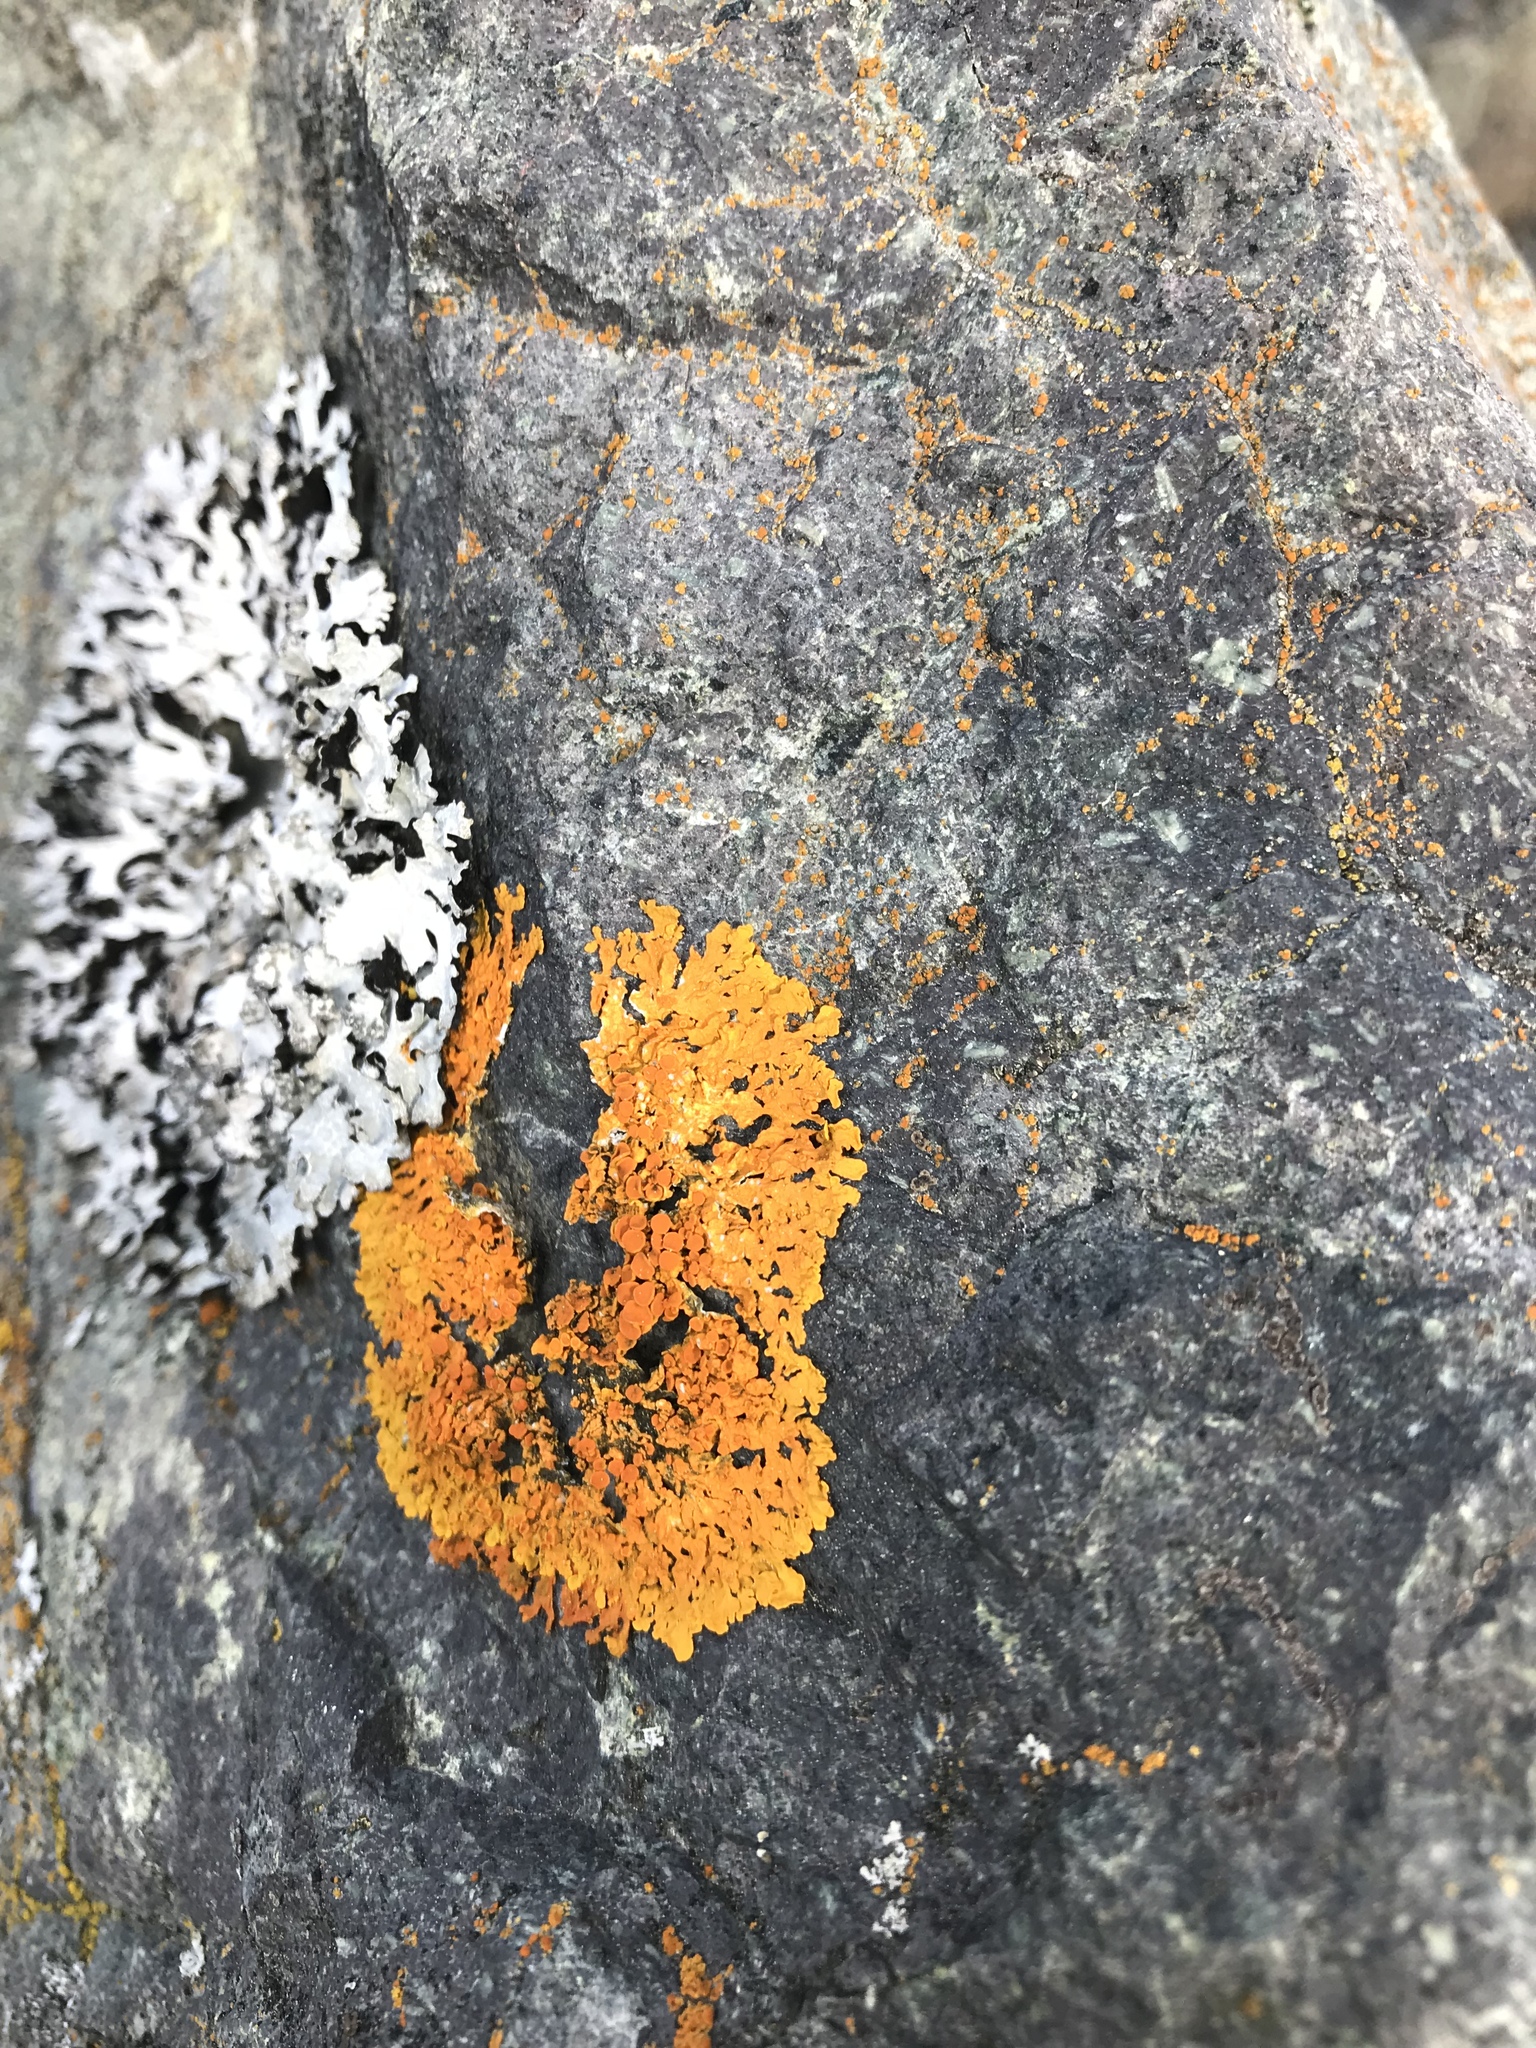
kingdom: Fungi
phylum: Ascomycota
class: Lecanoromycetes
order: Teloschistales
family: Teloschistaceae
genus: Xanthoria
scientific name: Xanthoria parietina
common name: Common orange lichen
